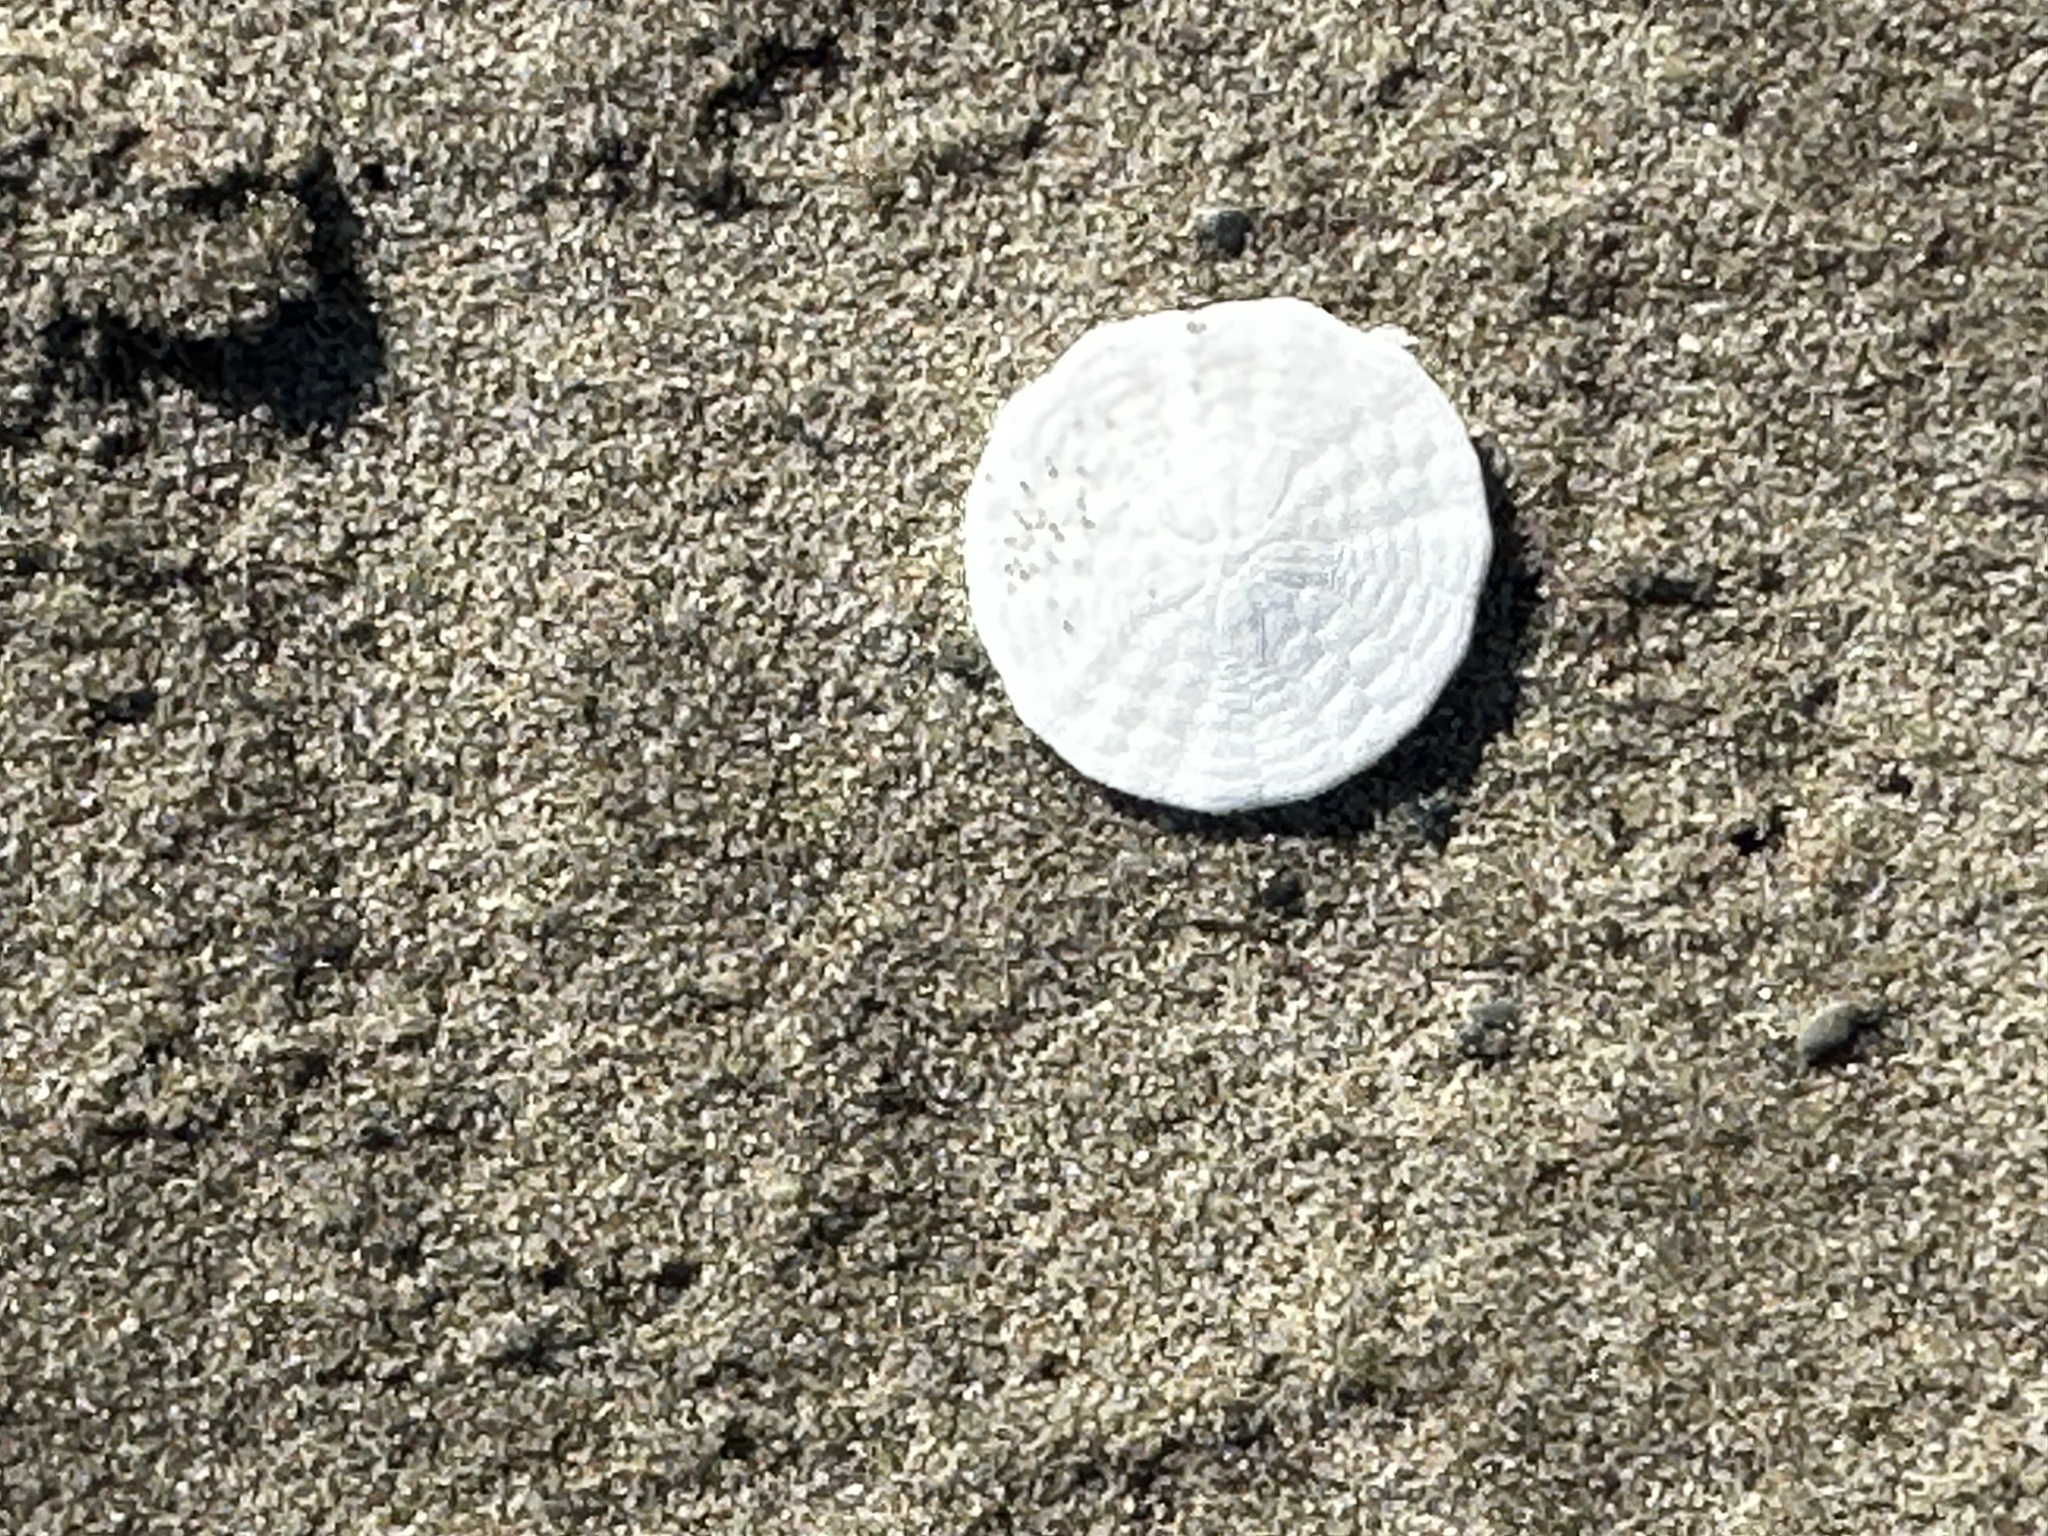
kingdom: Animalia
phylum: Echinodermata
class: Echinoidea
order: Echinolampadacea
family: Echinarachniidae
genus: Echinarachnius
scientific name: Echinarachnius parma
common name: Common sand dollar
